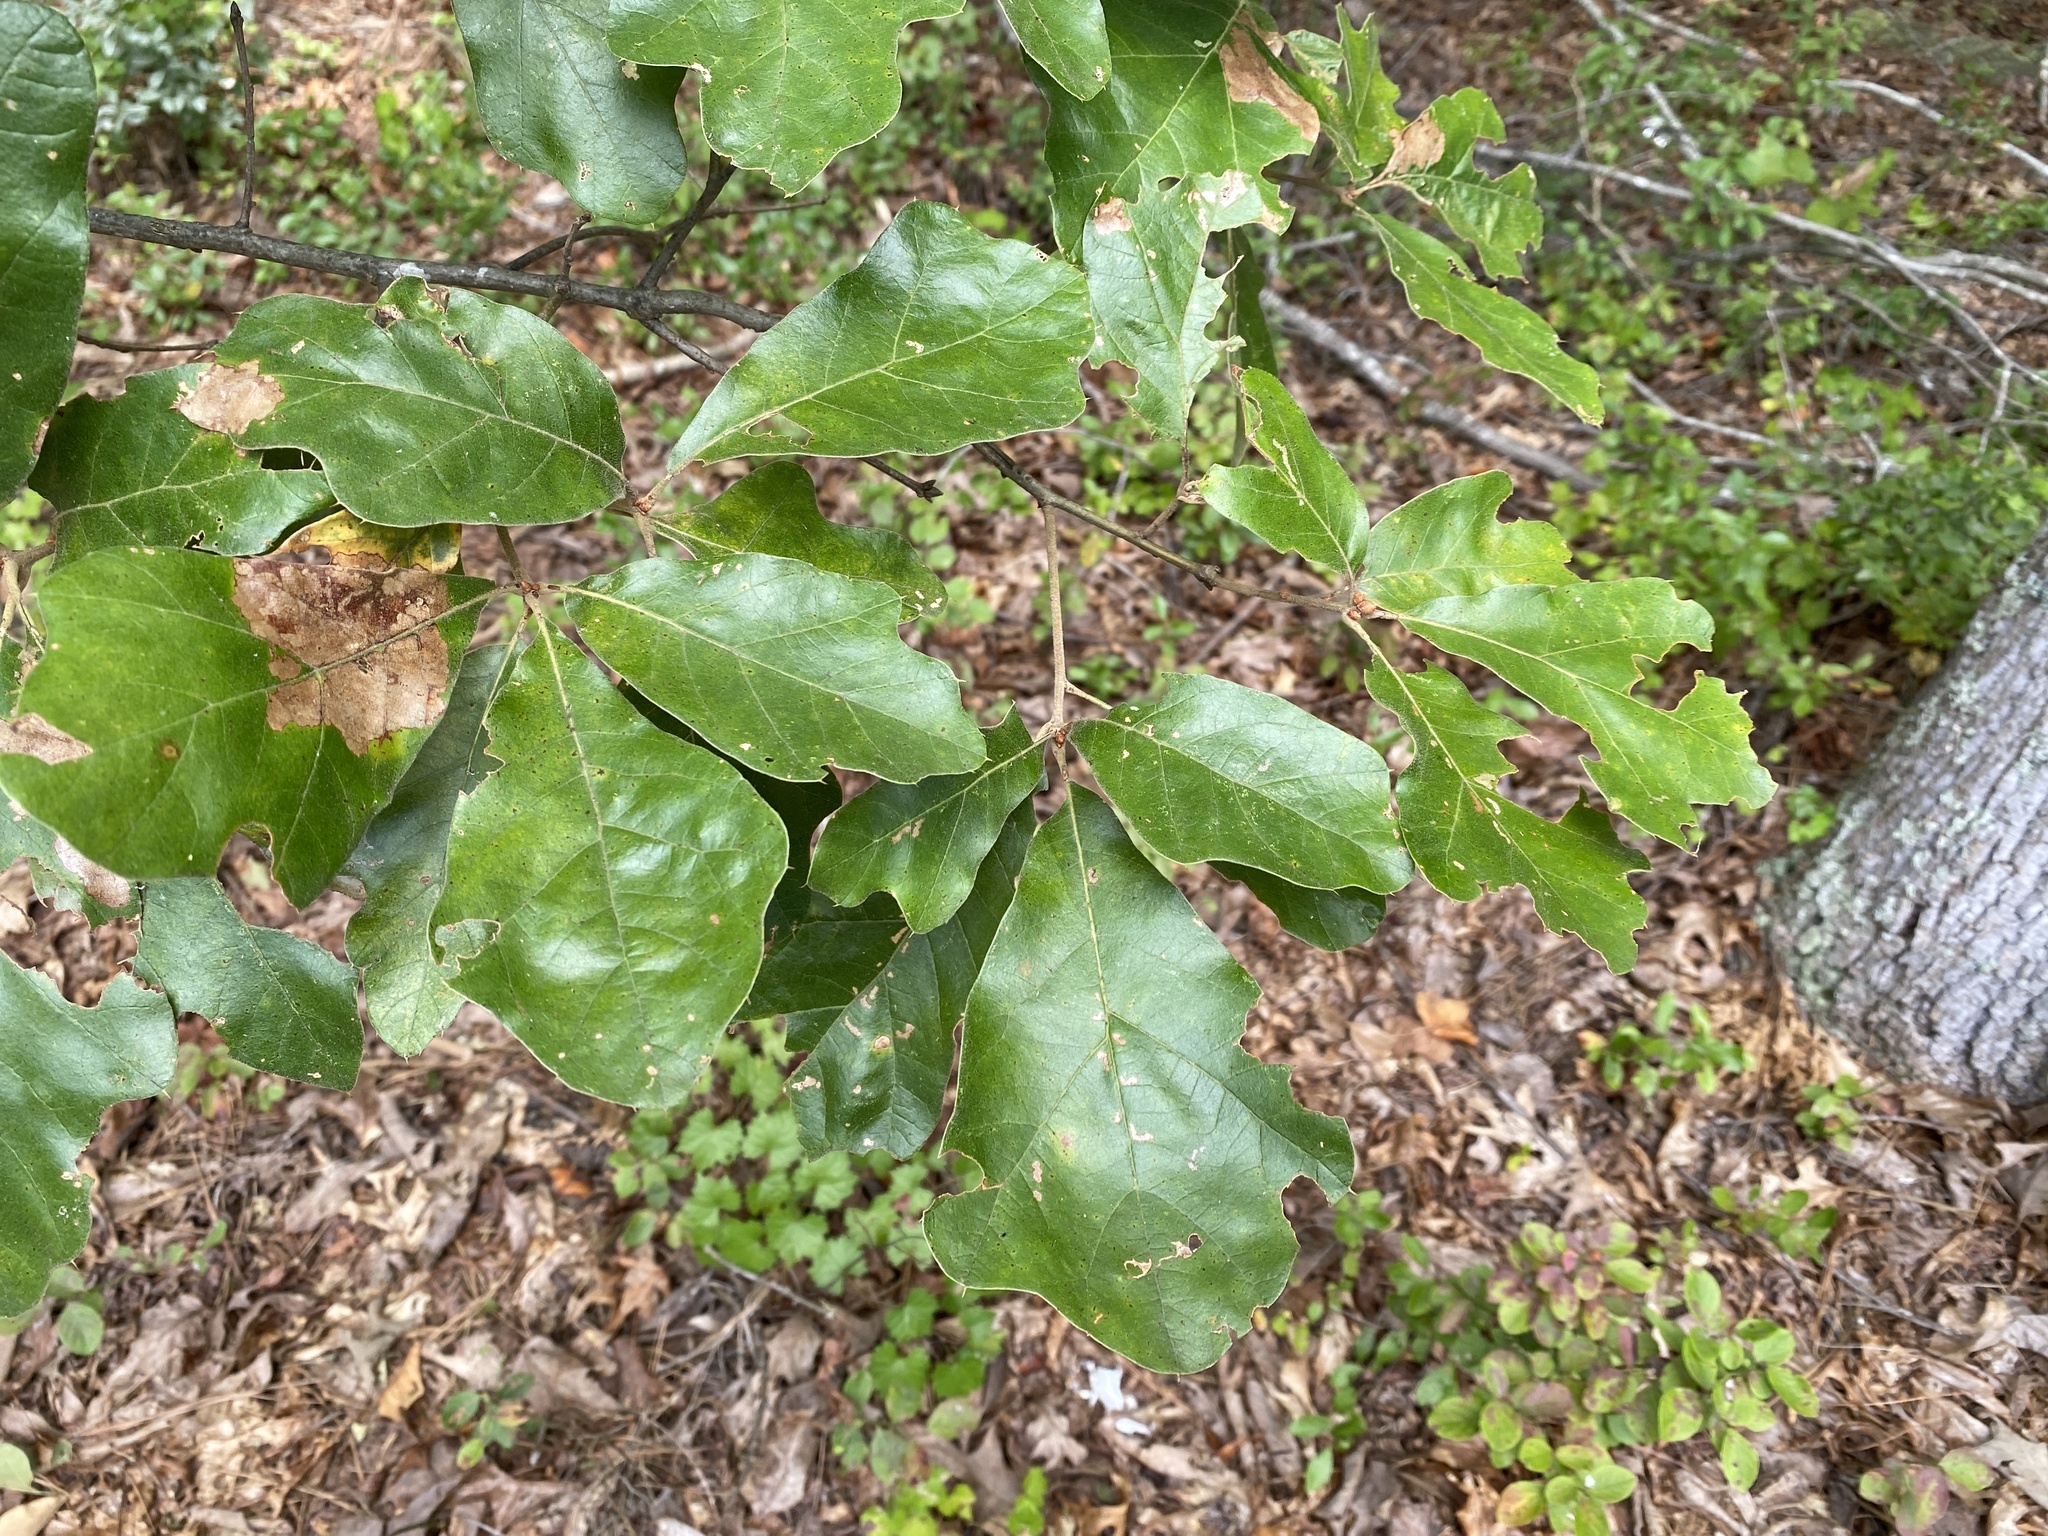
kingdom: Plantae
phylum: Tracheophyta
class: Magnoliopsida
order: Fagales
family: Fagaceae
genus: Quercus
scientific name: Quercus falcata
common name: Southern red oak
